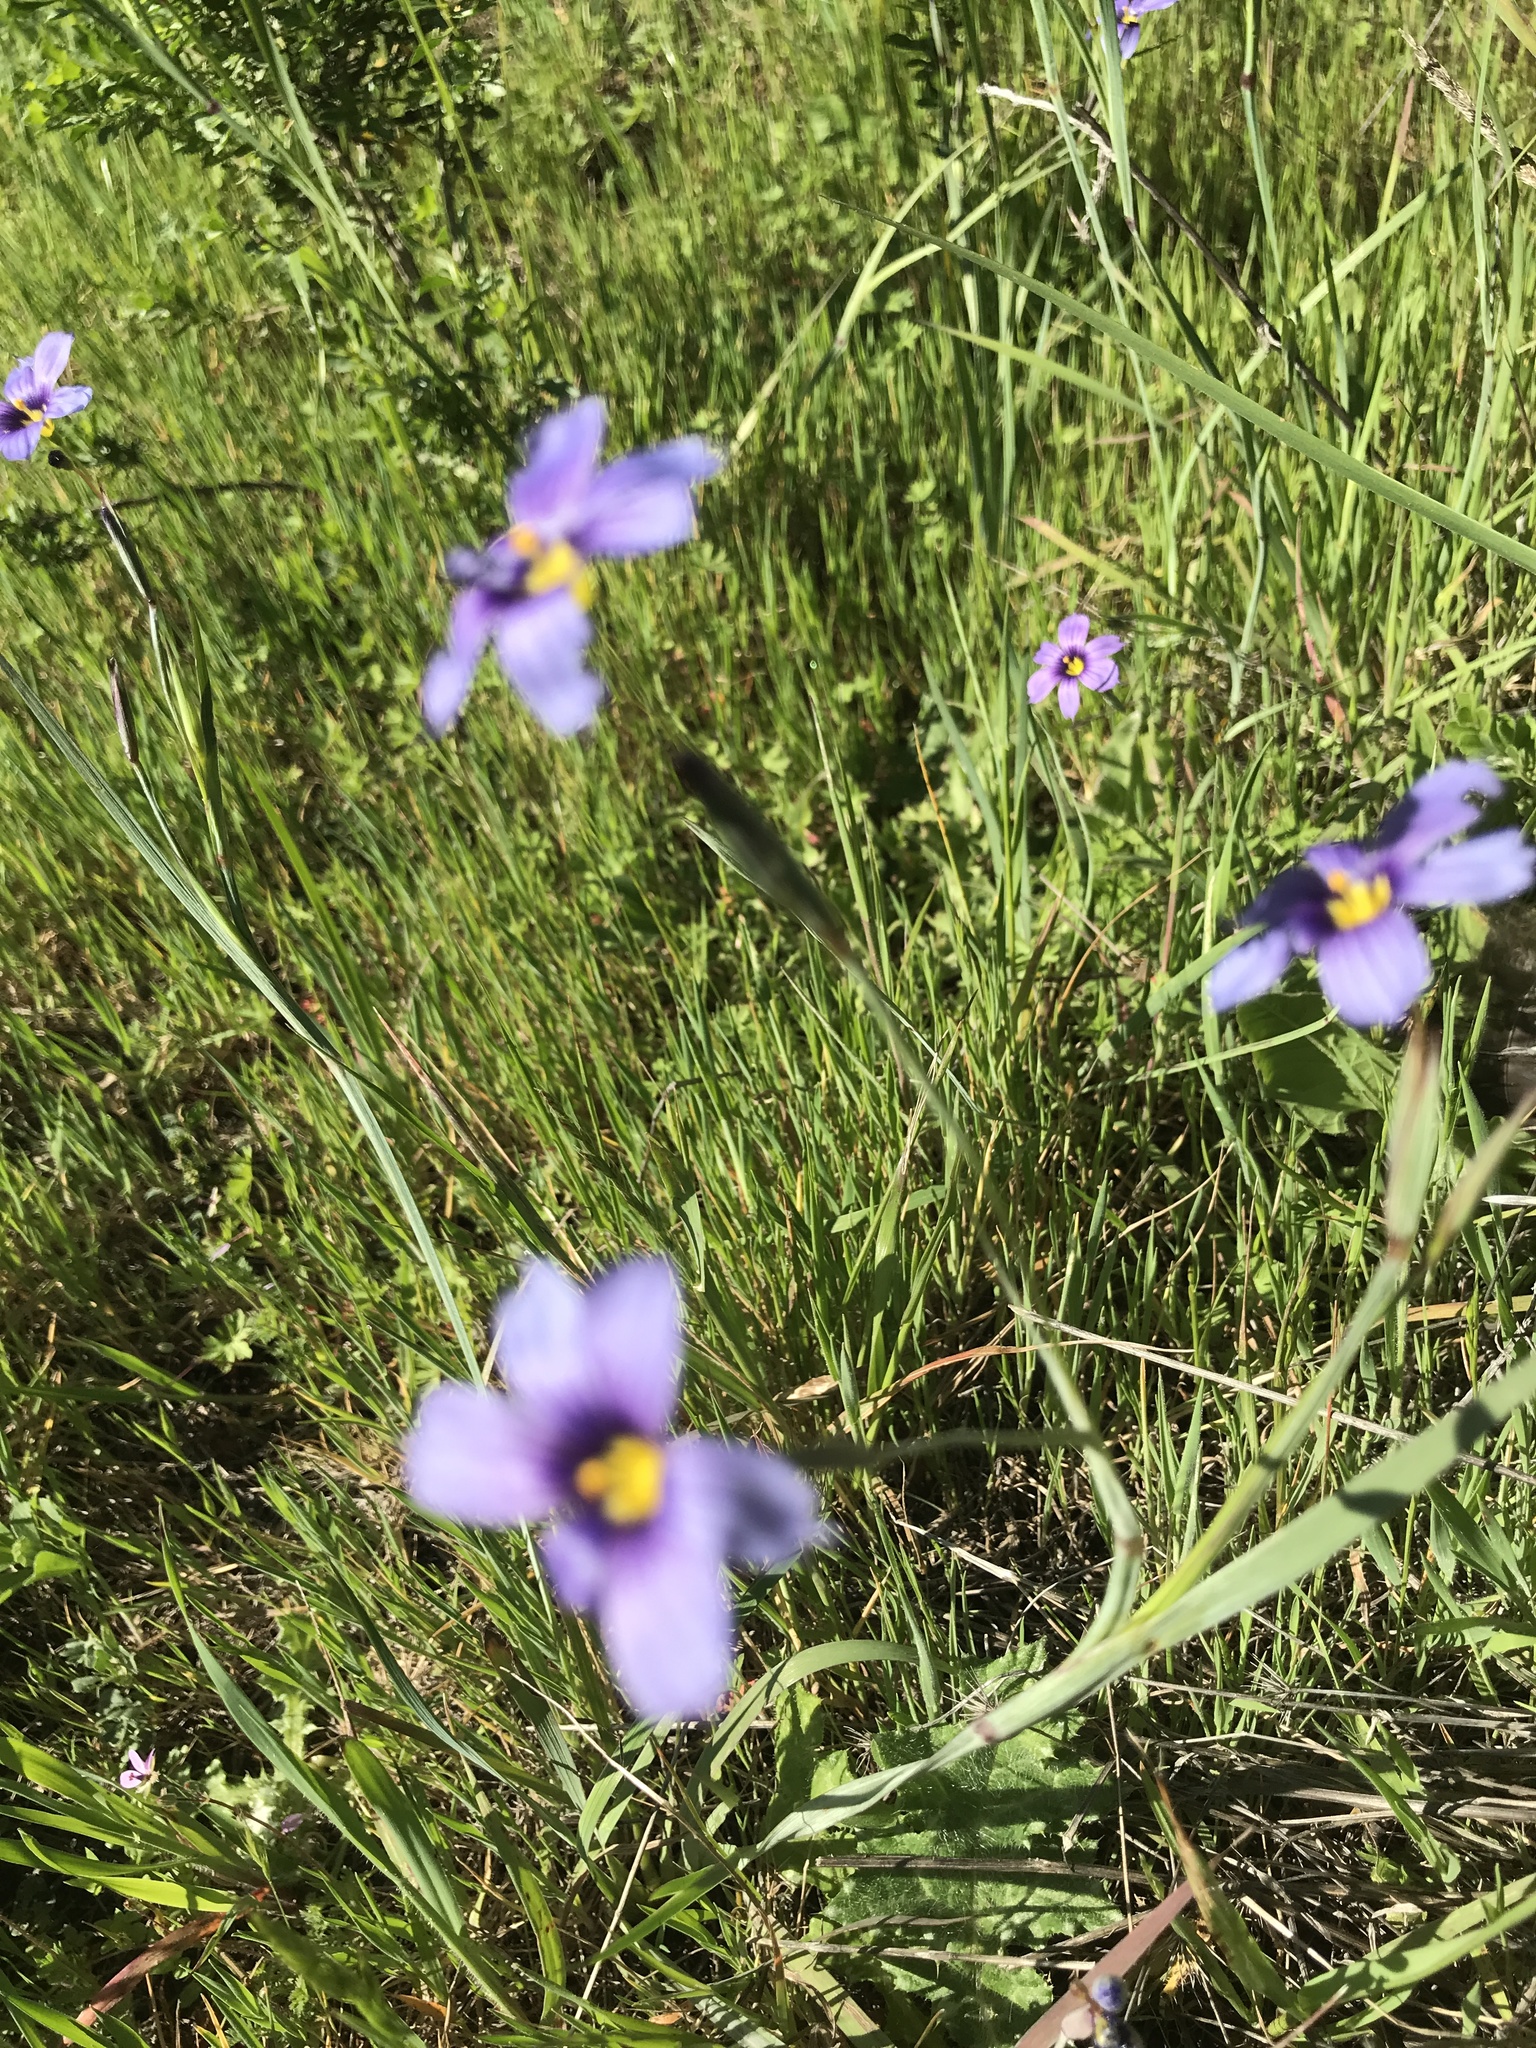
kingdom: Plantae
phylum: Tracheophyta
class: Liliopsida
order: Asparagales
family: Iridaceae
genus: Sisyrinchium
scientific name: Sisyrinchium bellum
